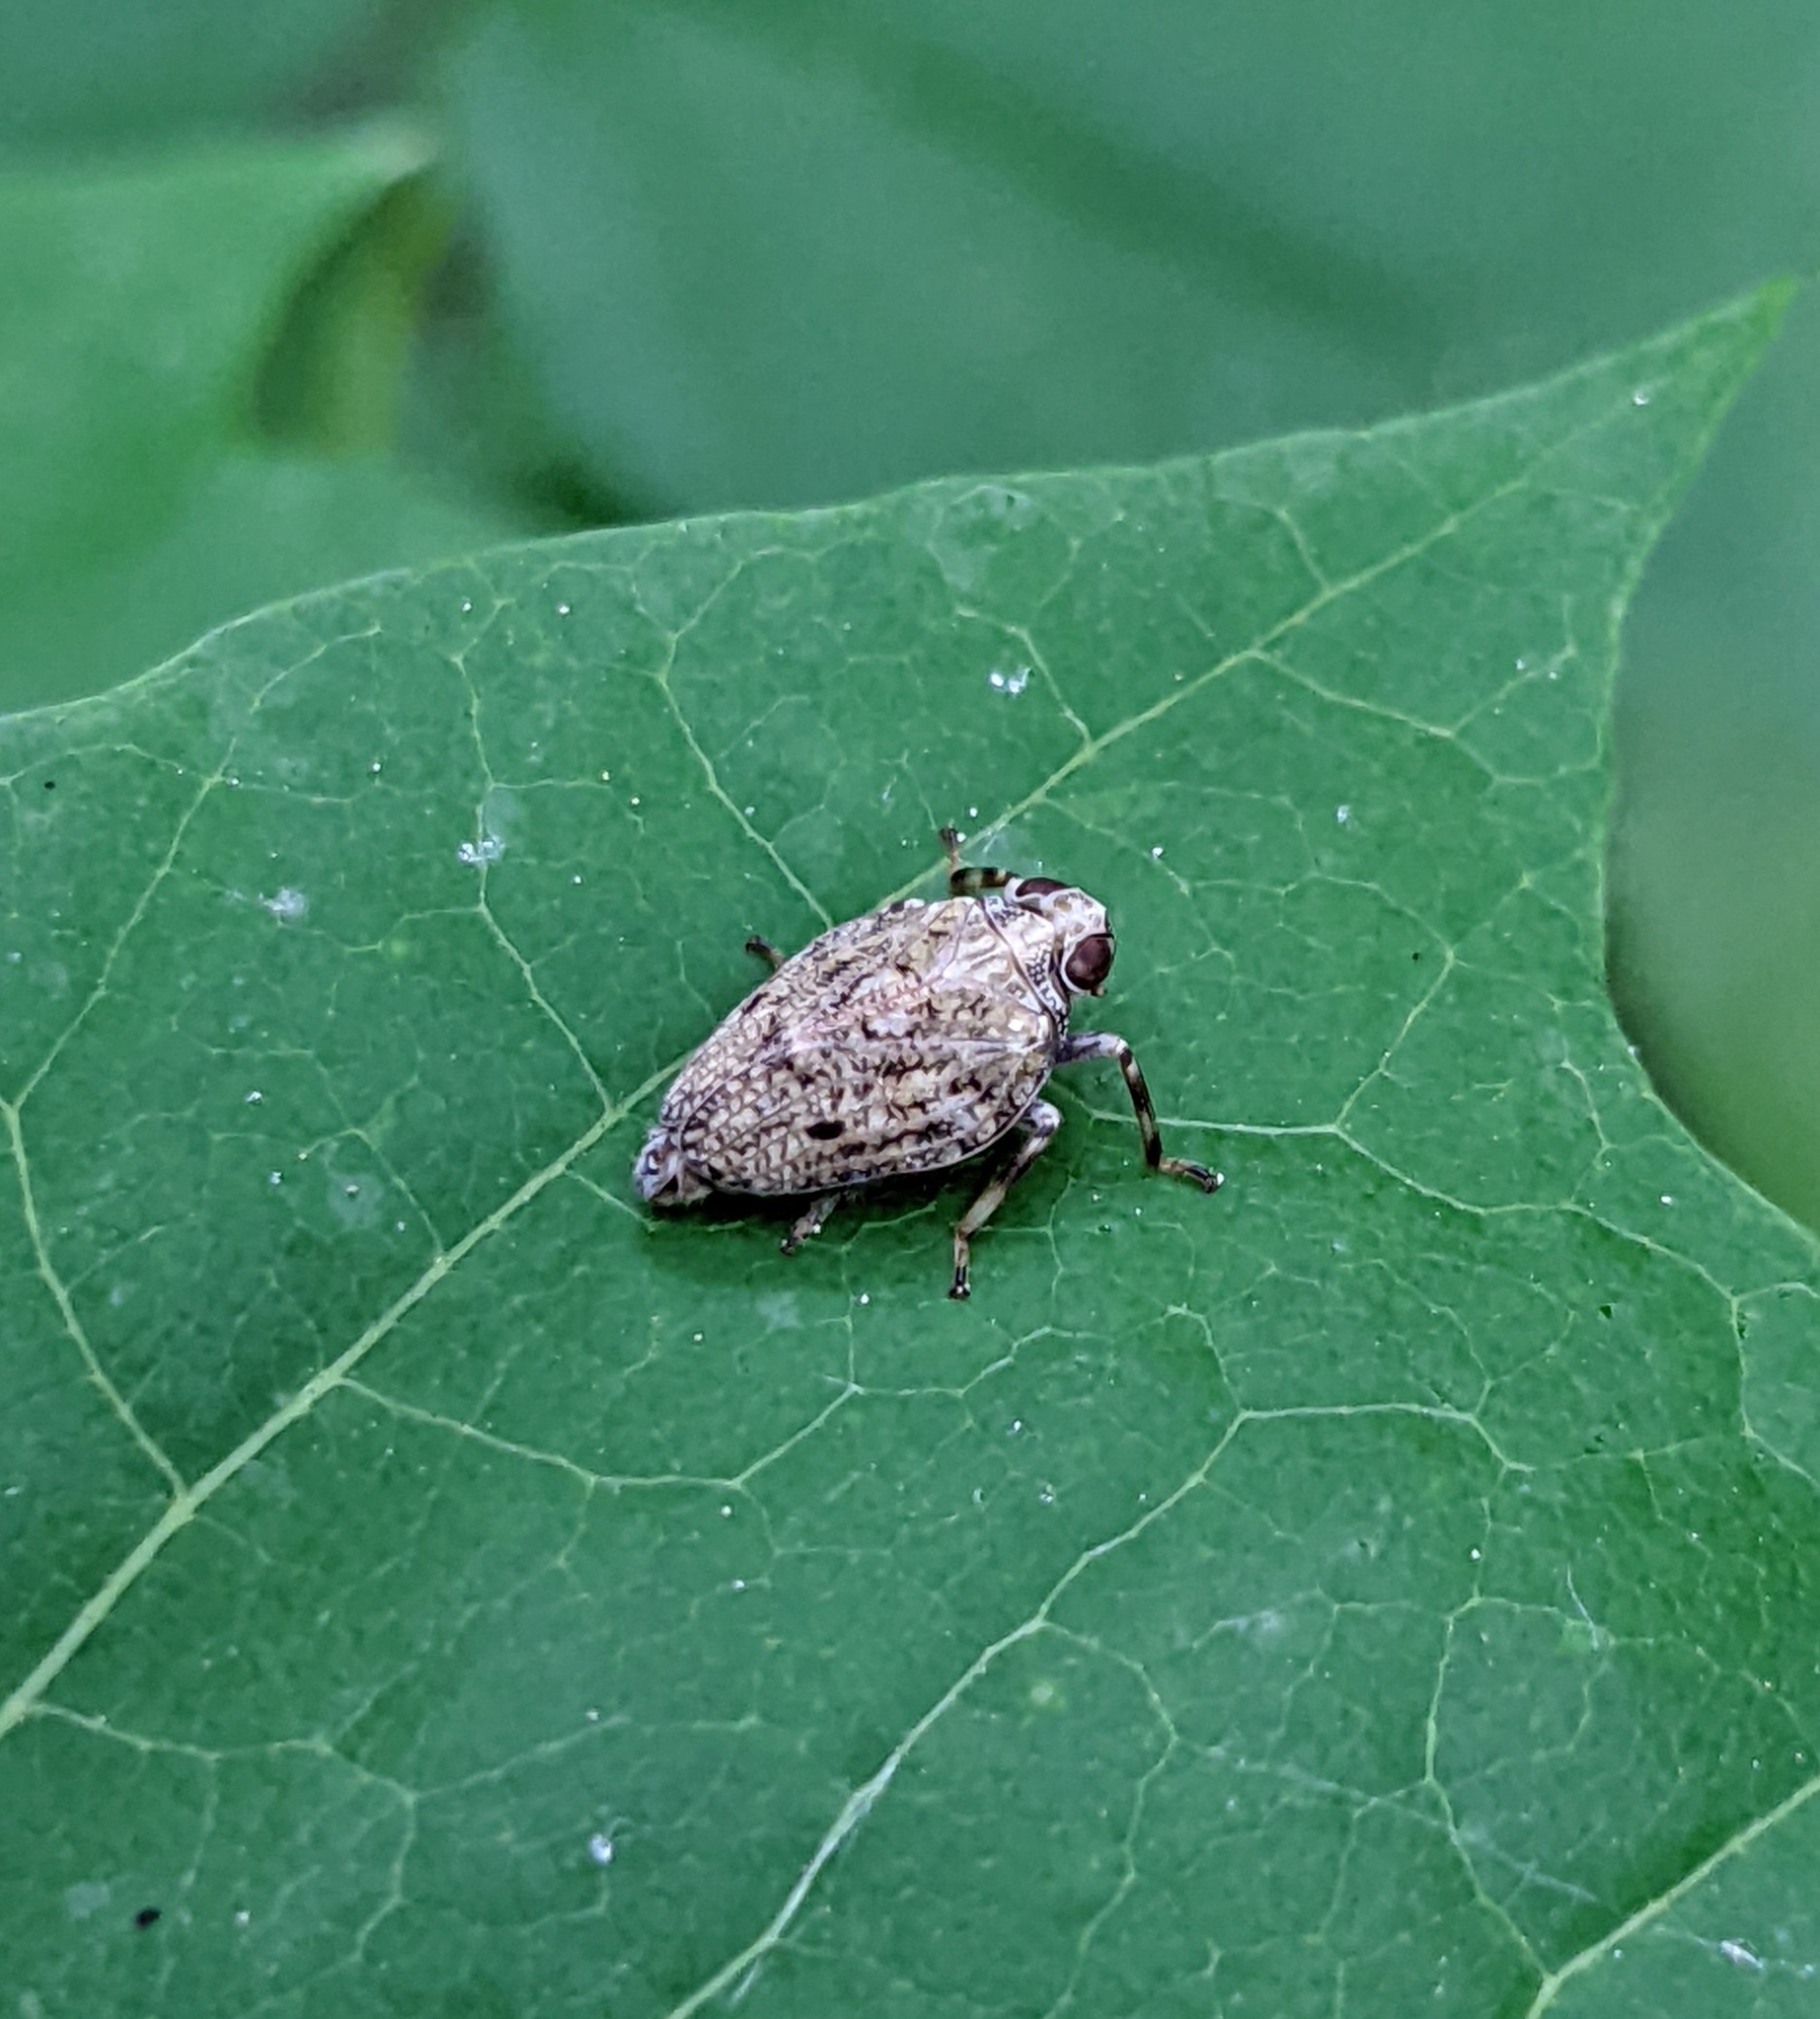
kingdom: Animalia
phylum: Arthropoda
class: Insecta
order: Hemiptera
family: Issidae
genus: Issus
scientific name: Issus coleoptratus
